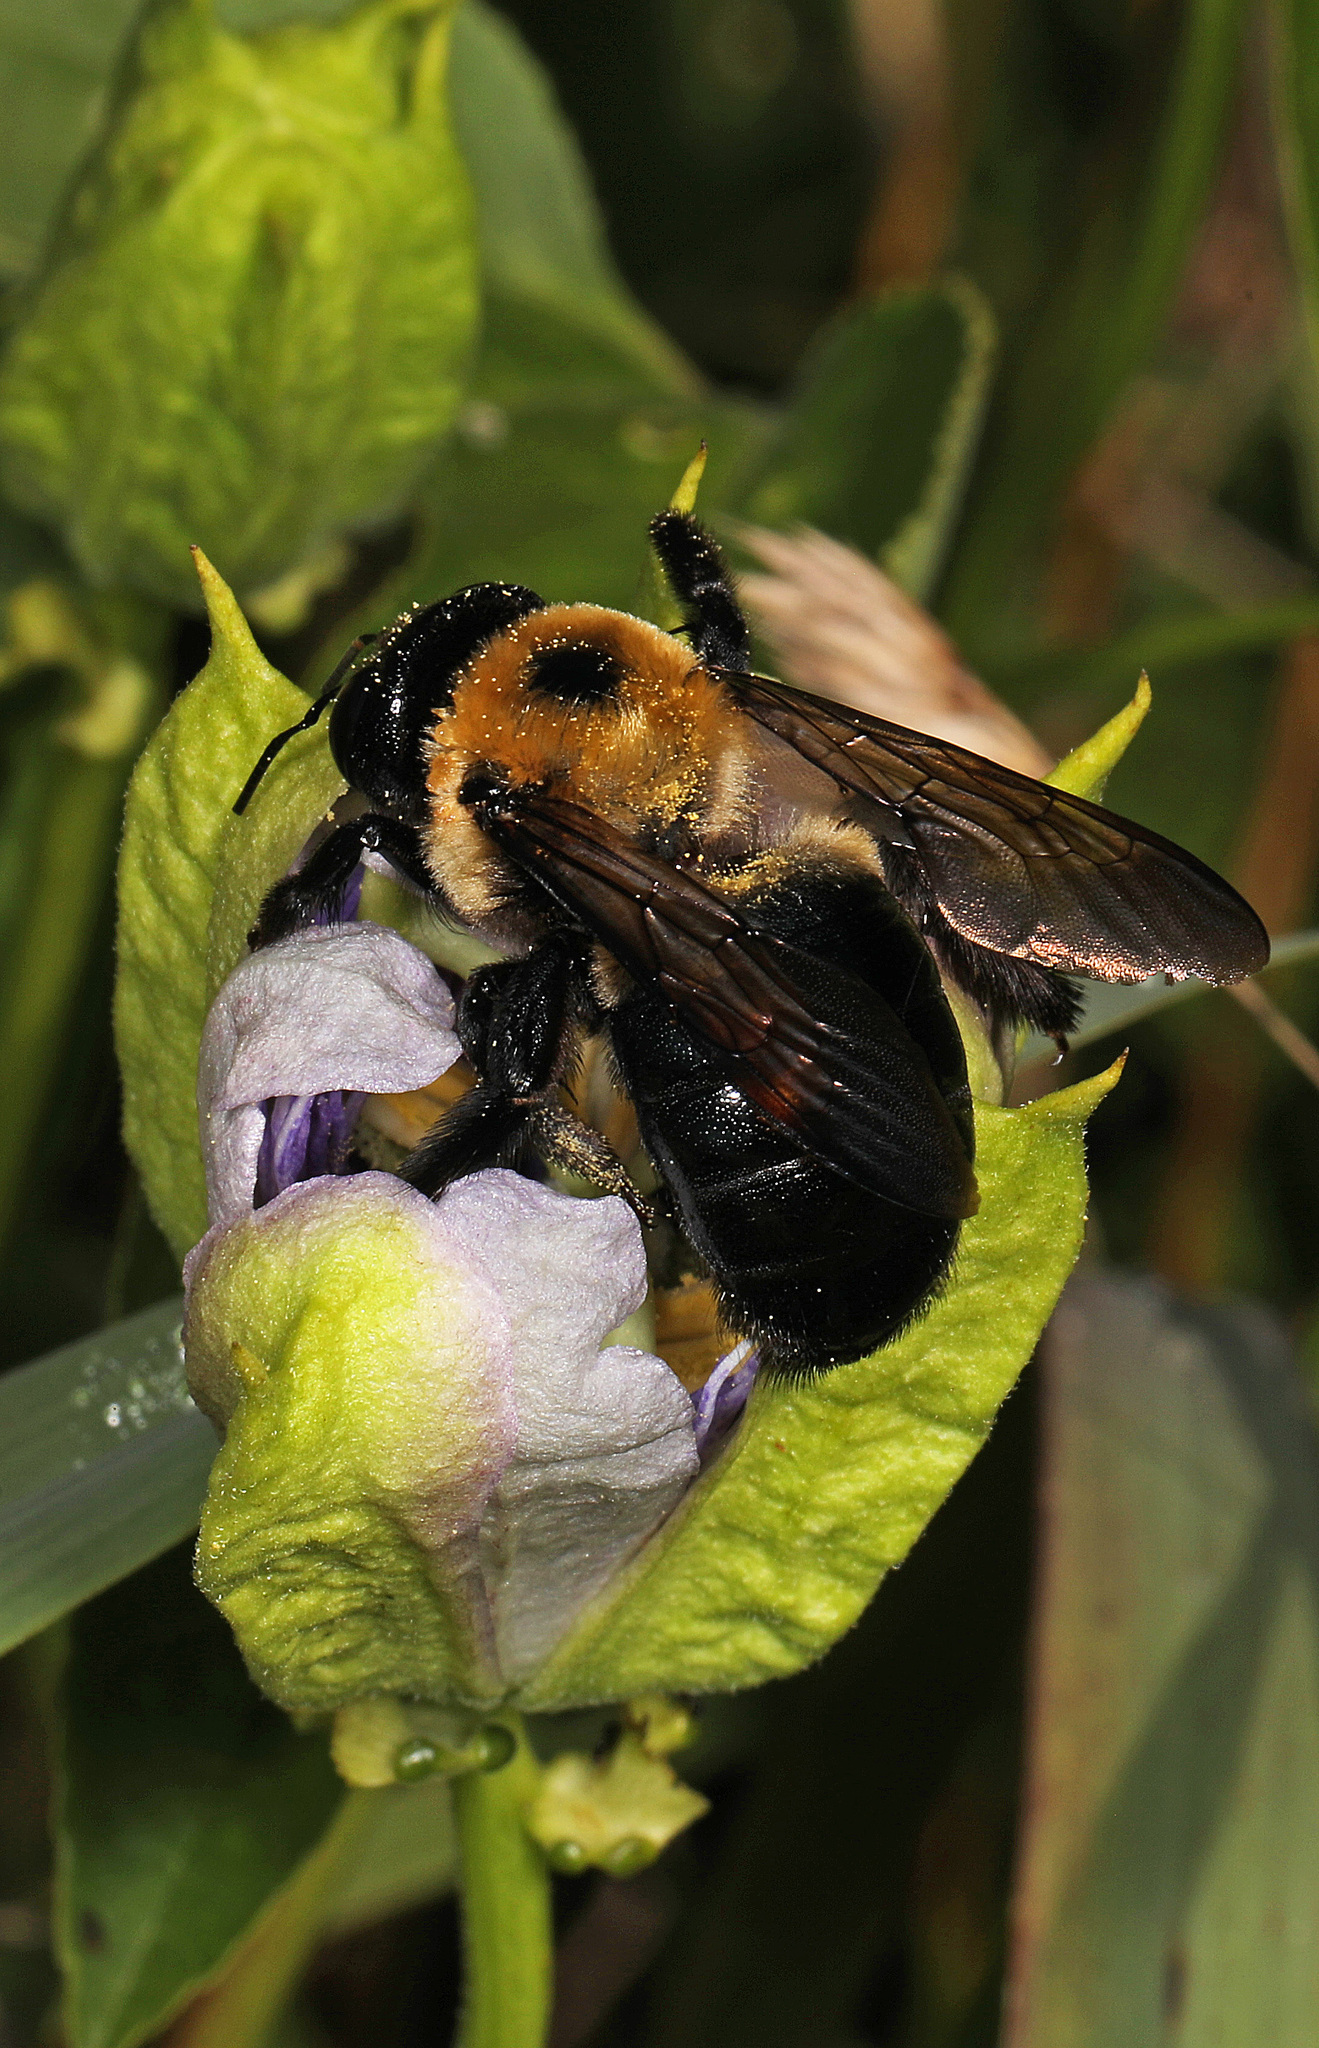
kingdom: Animalia
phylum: Arthropoda
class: Insecta
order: Hymenoptera
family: Apidae
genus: Xylocopa
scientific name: Xylocopa virginica
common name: Carpenter bee
